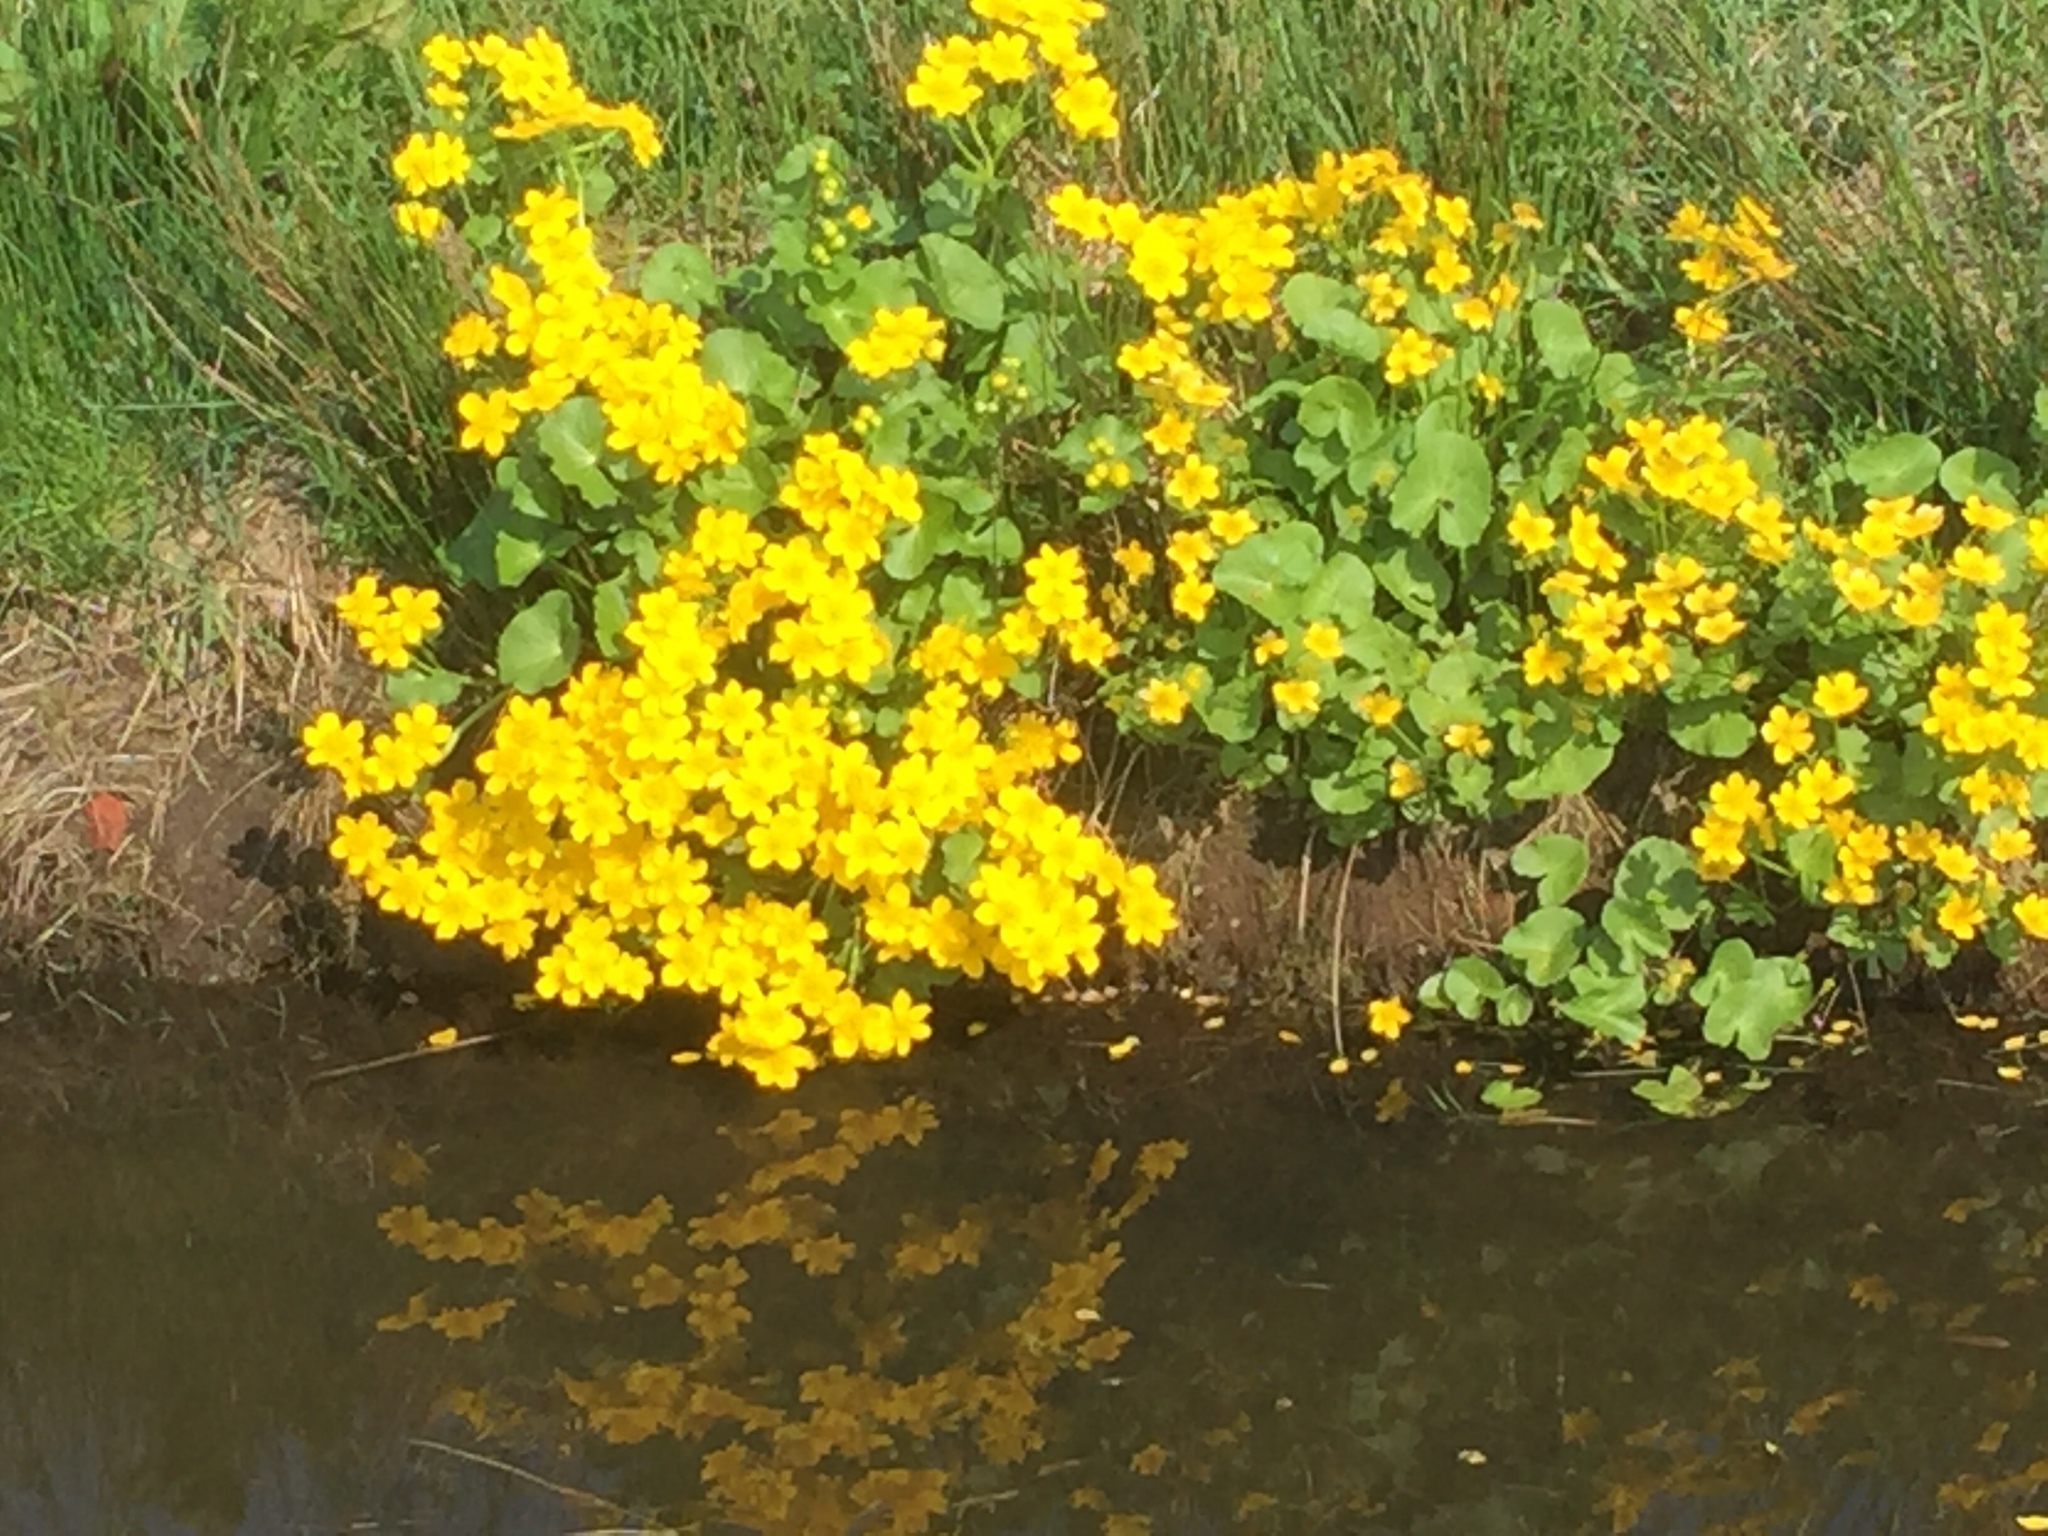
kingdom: Plantae
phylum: Tracheophyta
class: Magnoliopsida
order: Ranunculales
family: Ranunculaceae
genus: Caltha
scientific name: Caltha palustris
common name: Marsh marigold
